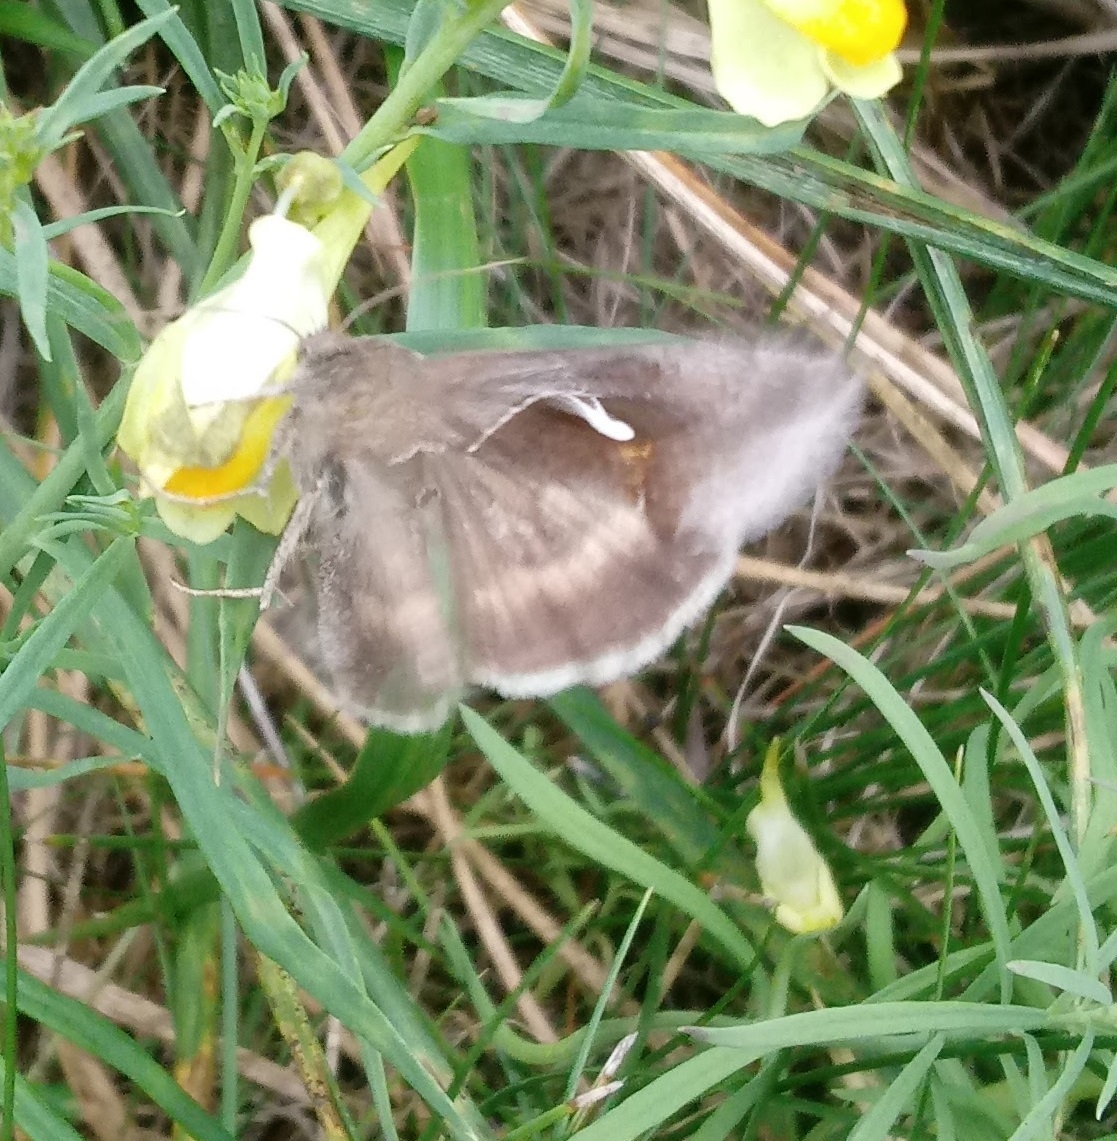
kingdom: Animalia
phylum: Arthropoda
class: Insecta
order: Lepidoptera
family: Noctuidae
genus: Anagrapha
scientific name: Anagrapha falcifera
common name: Celery looper
